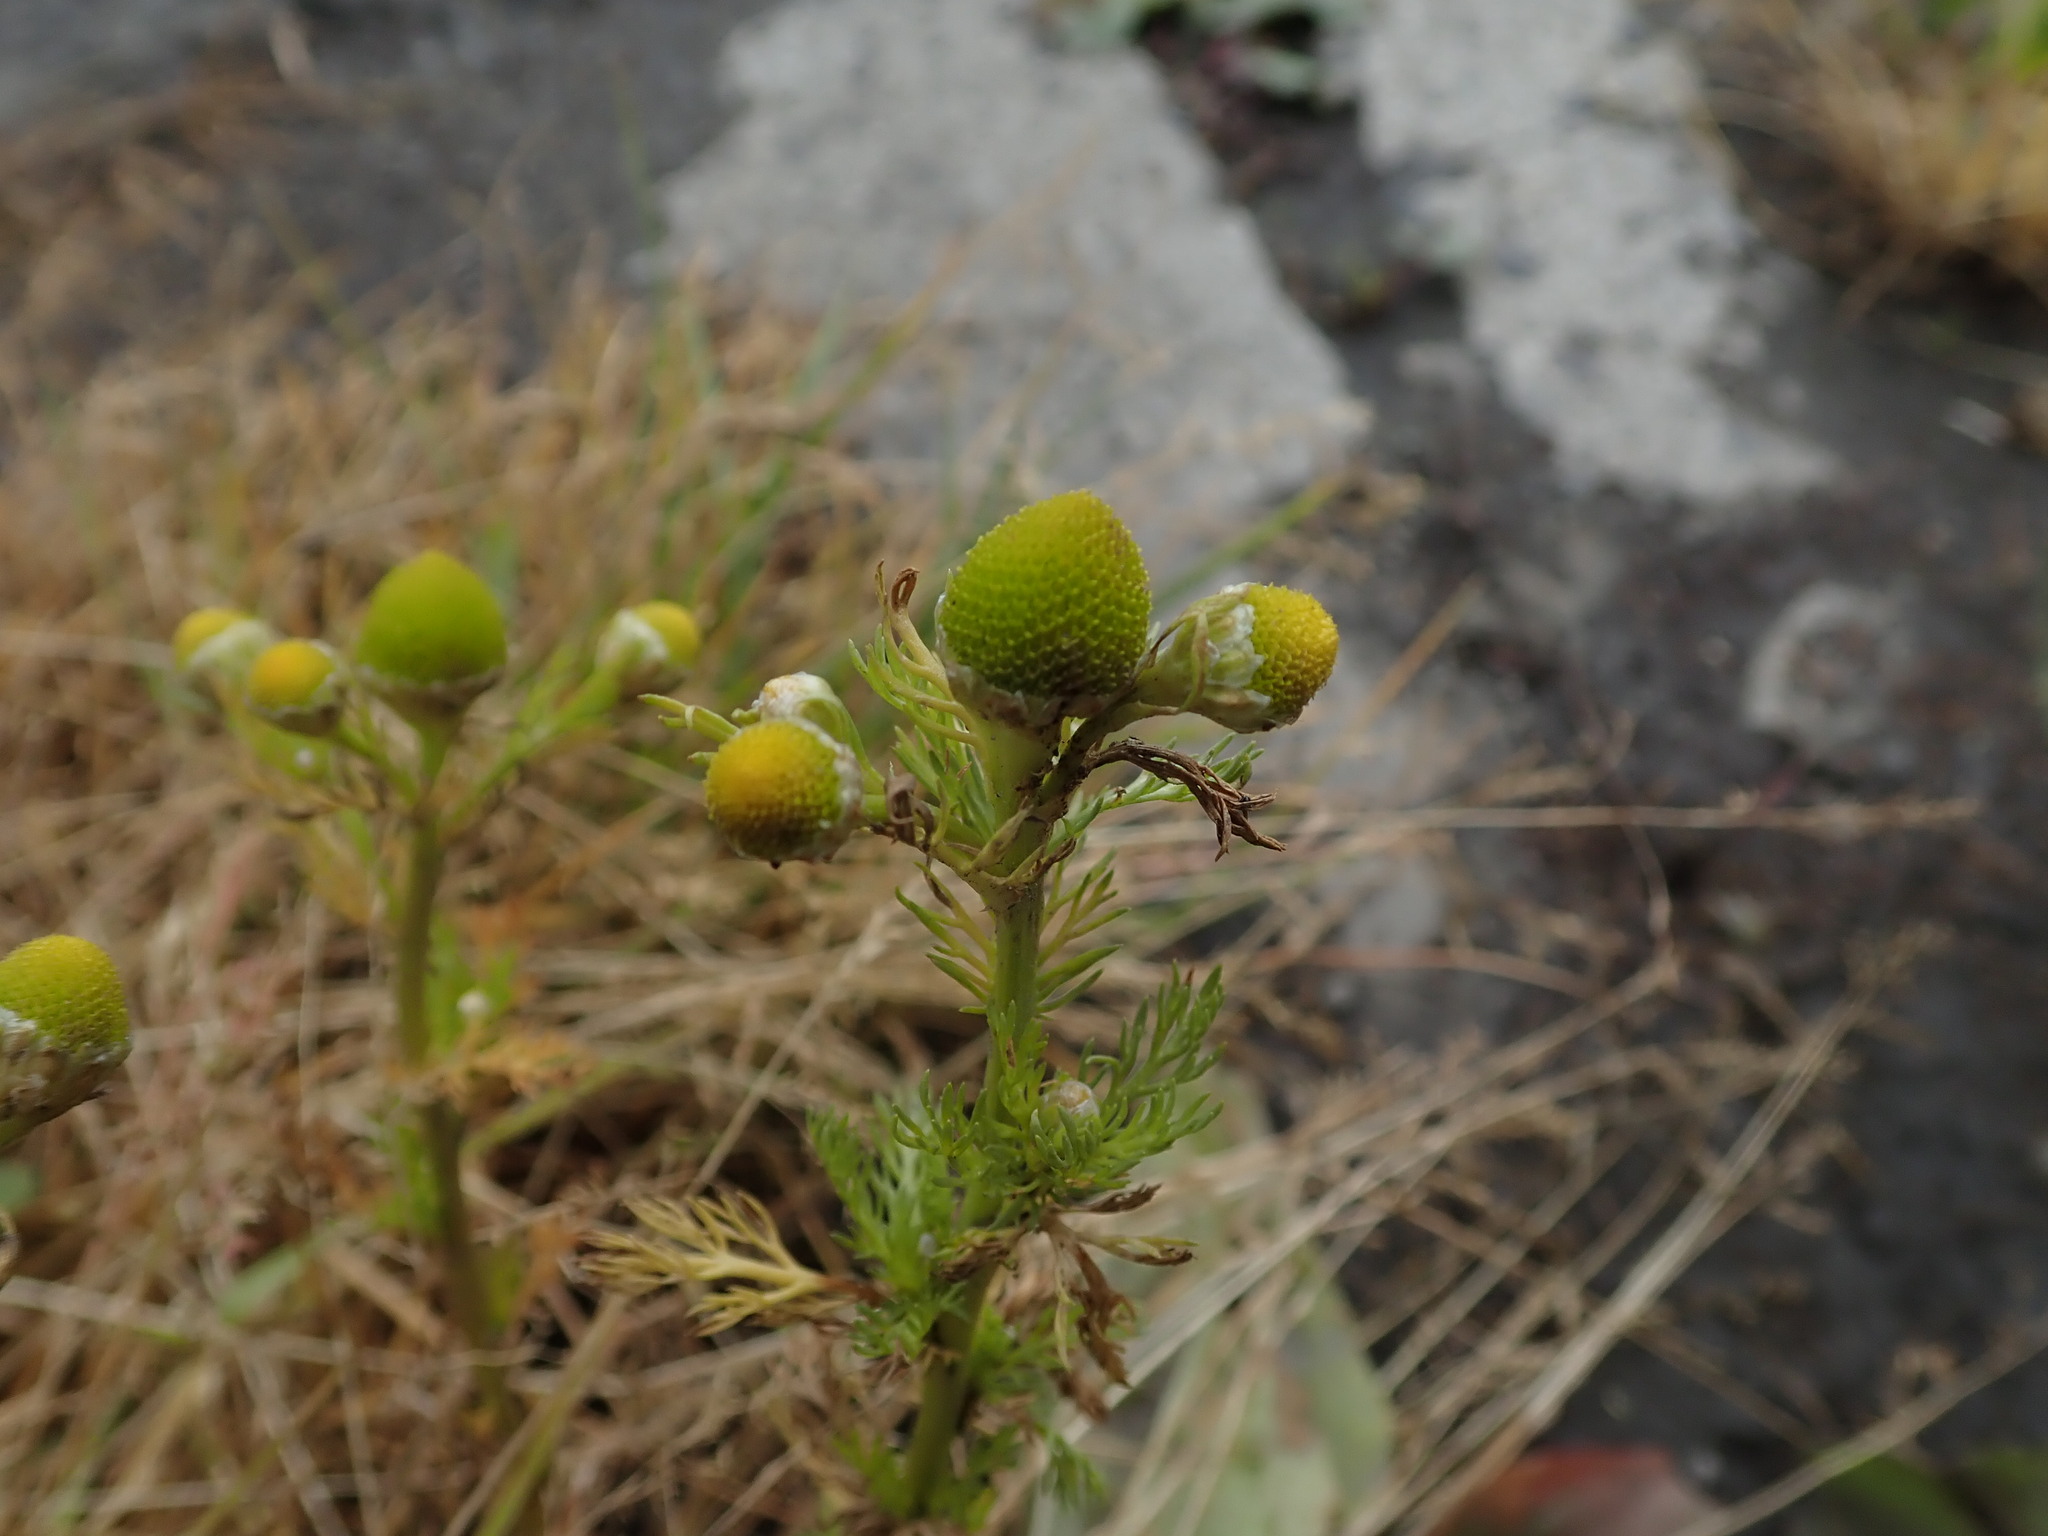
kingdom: Plantae
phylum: Tracheophyta
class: Magnoliopsida
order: Asterales
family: Asteraceae
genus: Matricaria
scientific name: Matricaria discoidea
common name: Disc mayweed
